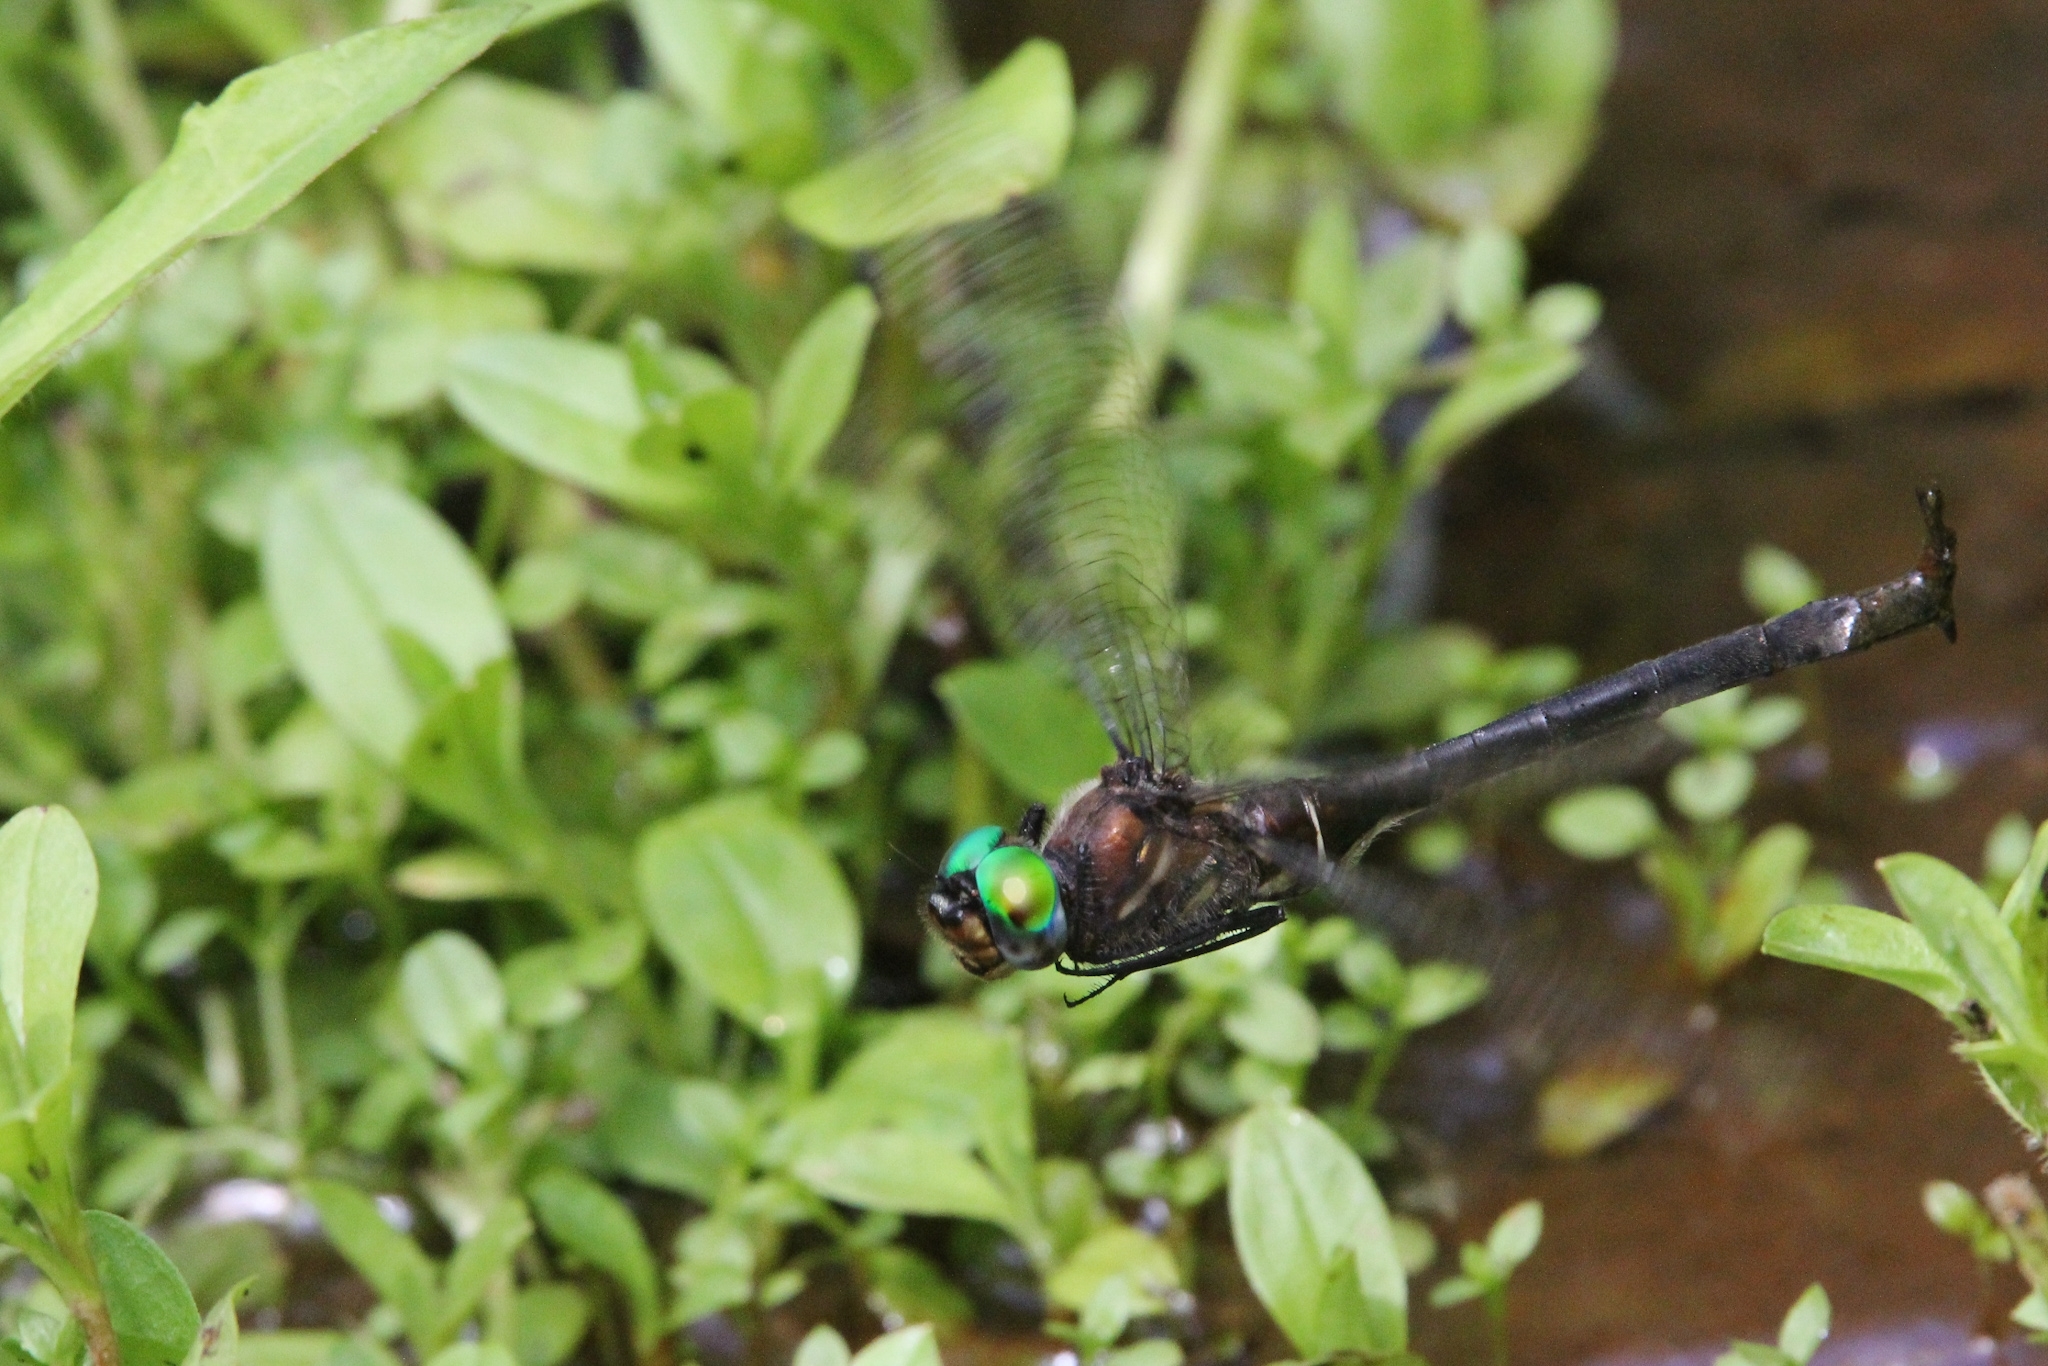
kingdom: Animalia
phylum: Arthropoda
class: Insecta
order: Odonata
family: Corduliidae
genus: Somatochlora
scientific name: Somatochlora tenebrosa
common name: Clamp-tipped emerald
